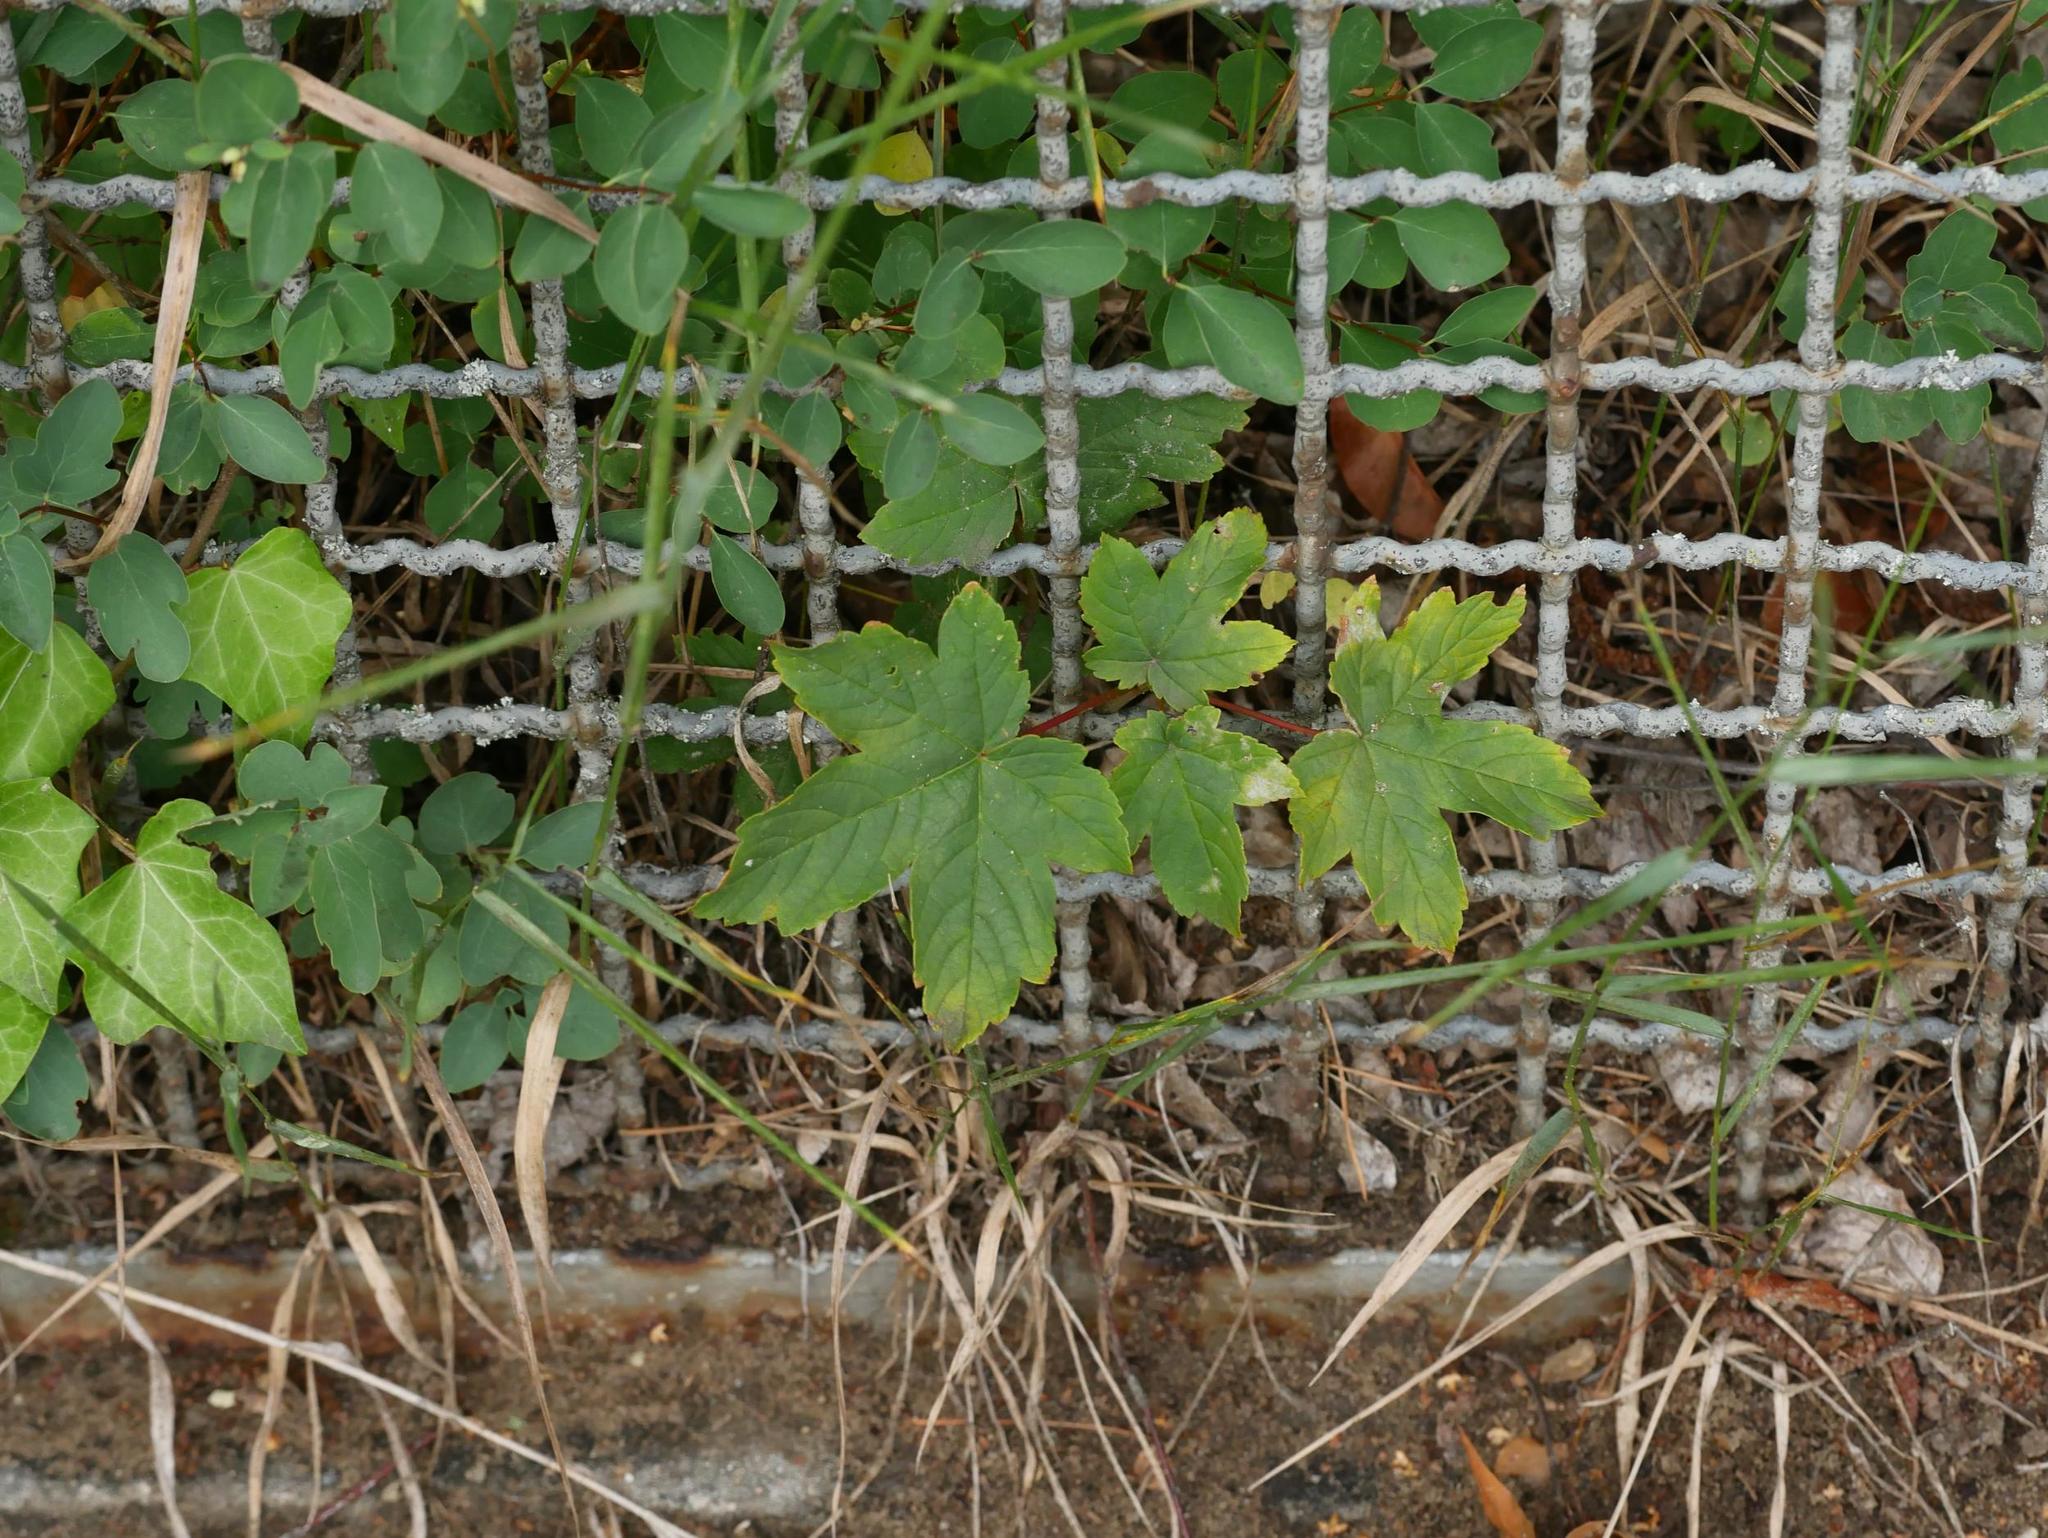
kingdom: Plantae
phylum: Tracheophyta
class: Magnoliopsida
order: Sapindales
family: Sapindaceae
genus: Acer
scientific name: Acer pseudoplatanus
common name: Sycamore
